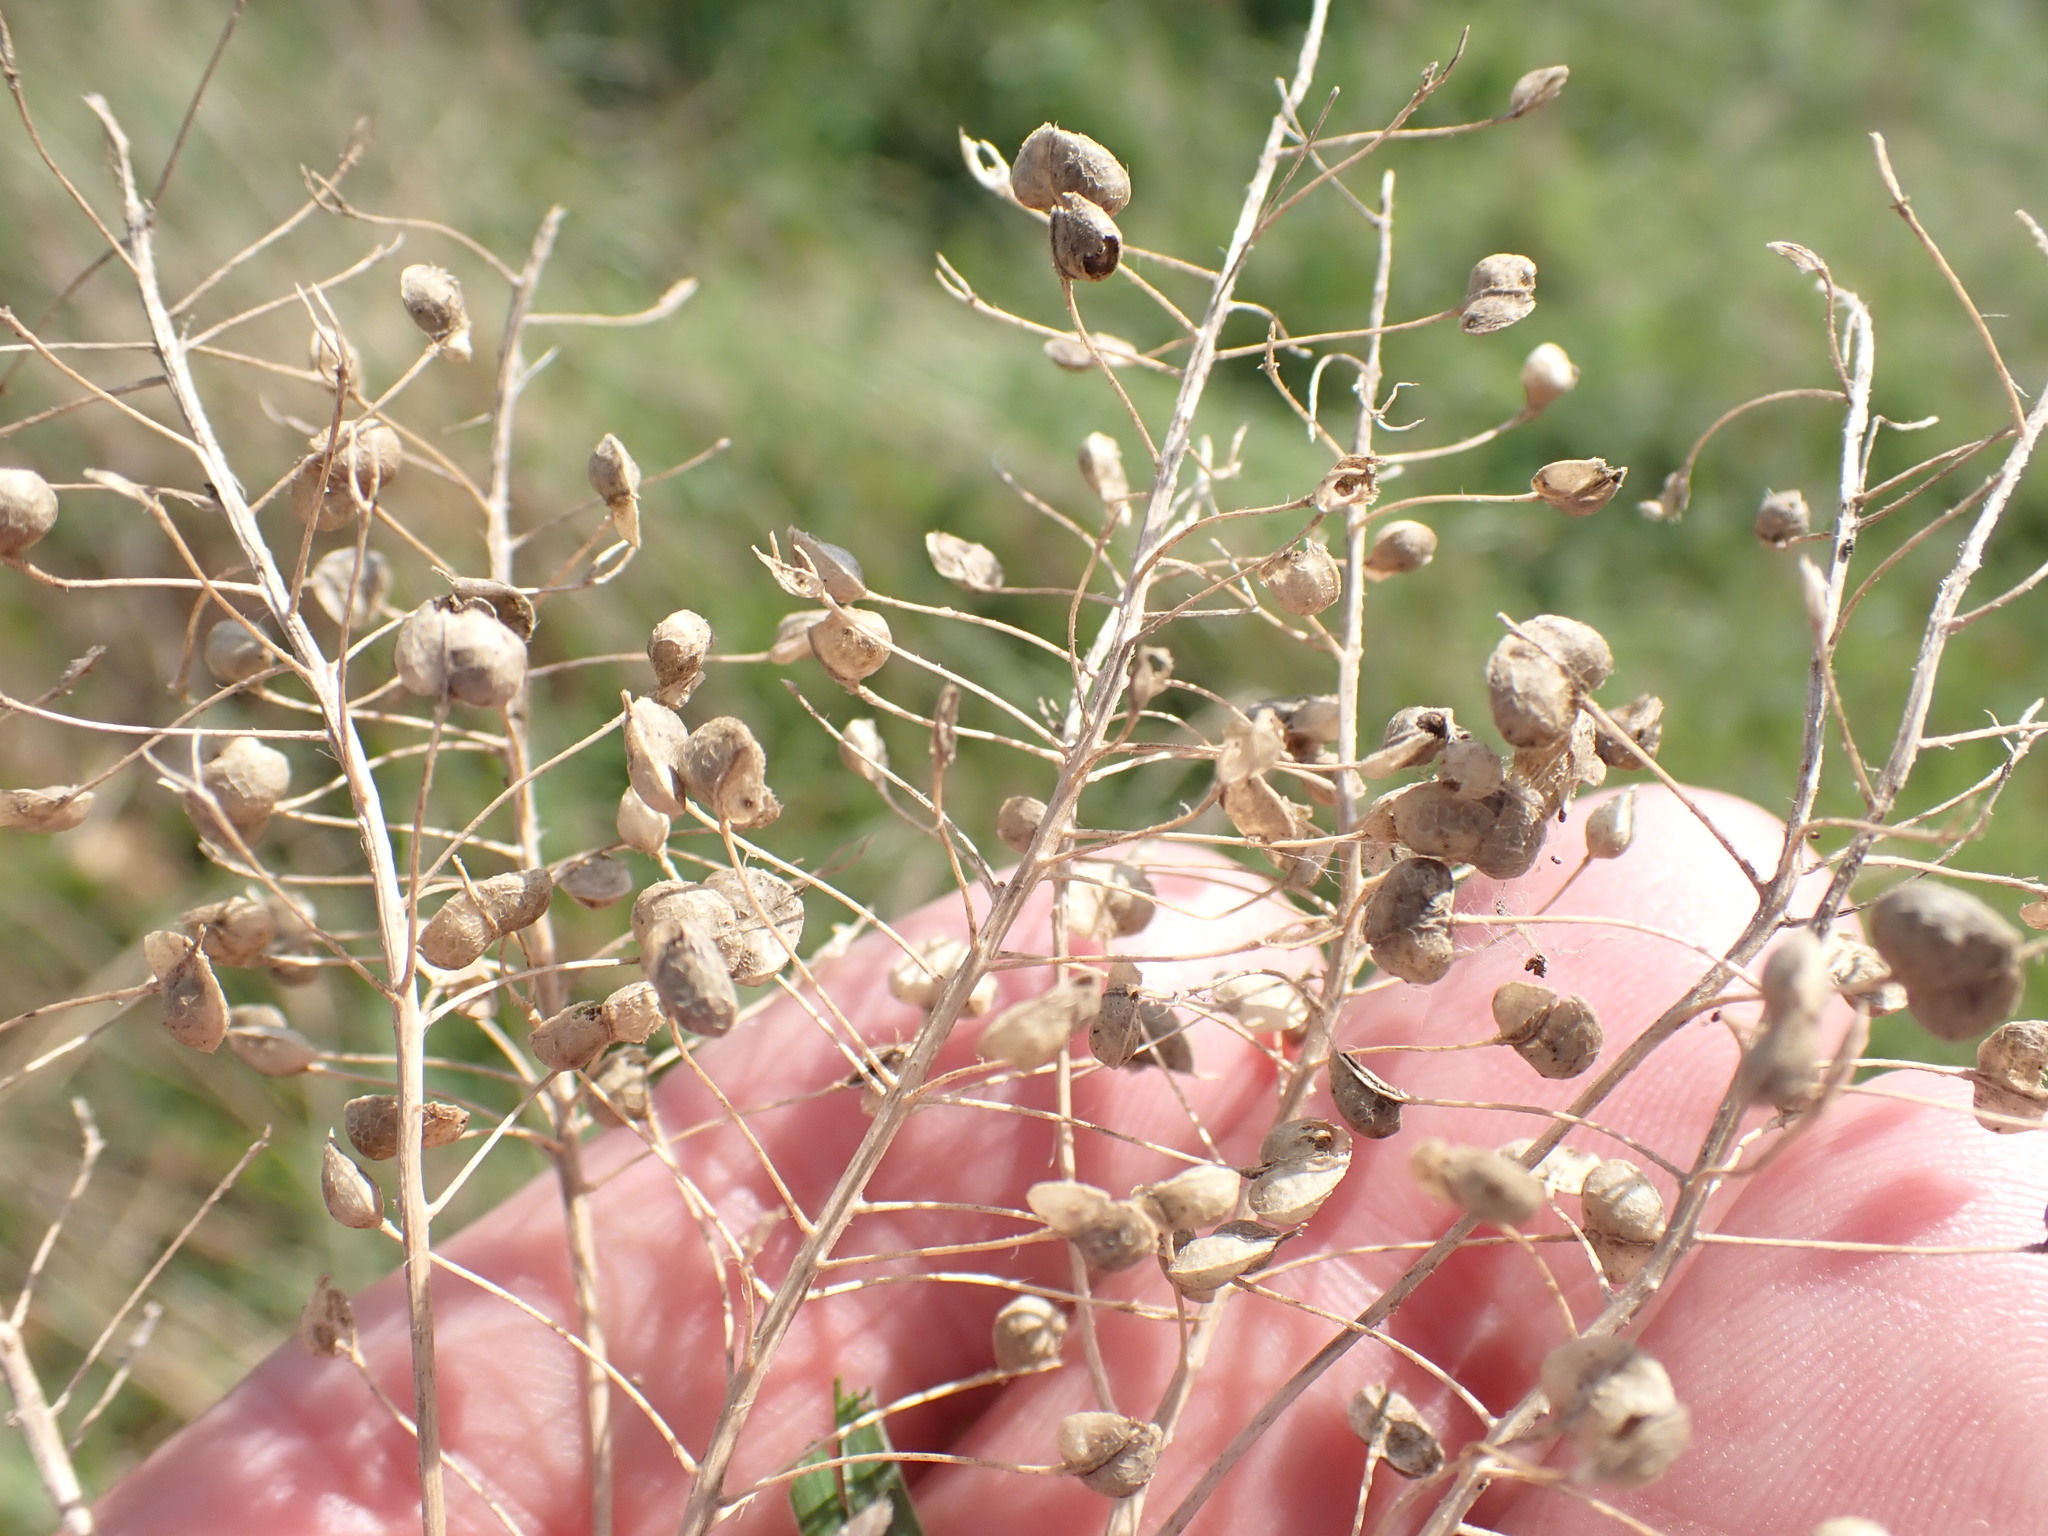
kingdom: Plantae
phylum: Tracheophyta
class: Magnoliopsida
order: Brassicales
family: Brassicaceae
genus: Lepidium
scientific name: Lepidium draba
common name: Hoary cress
